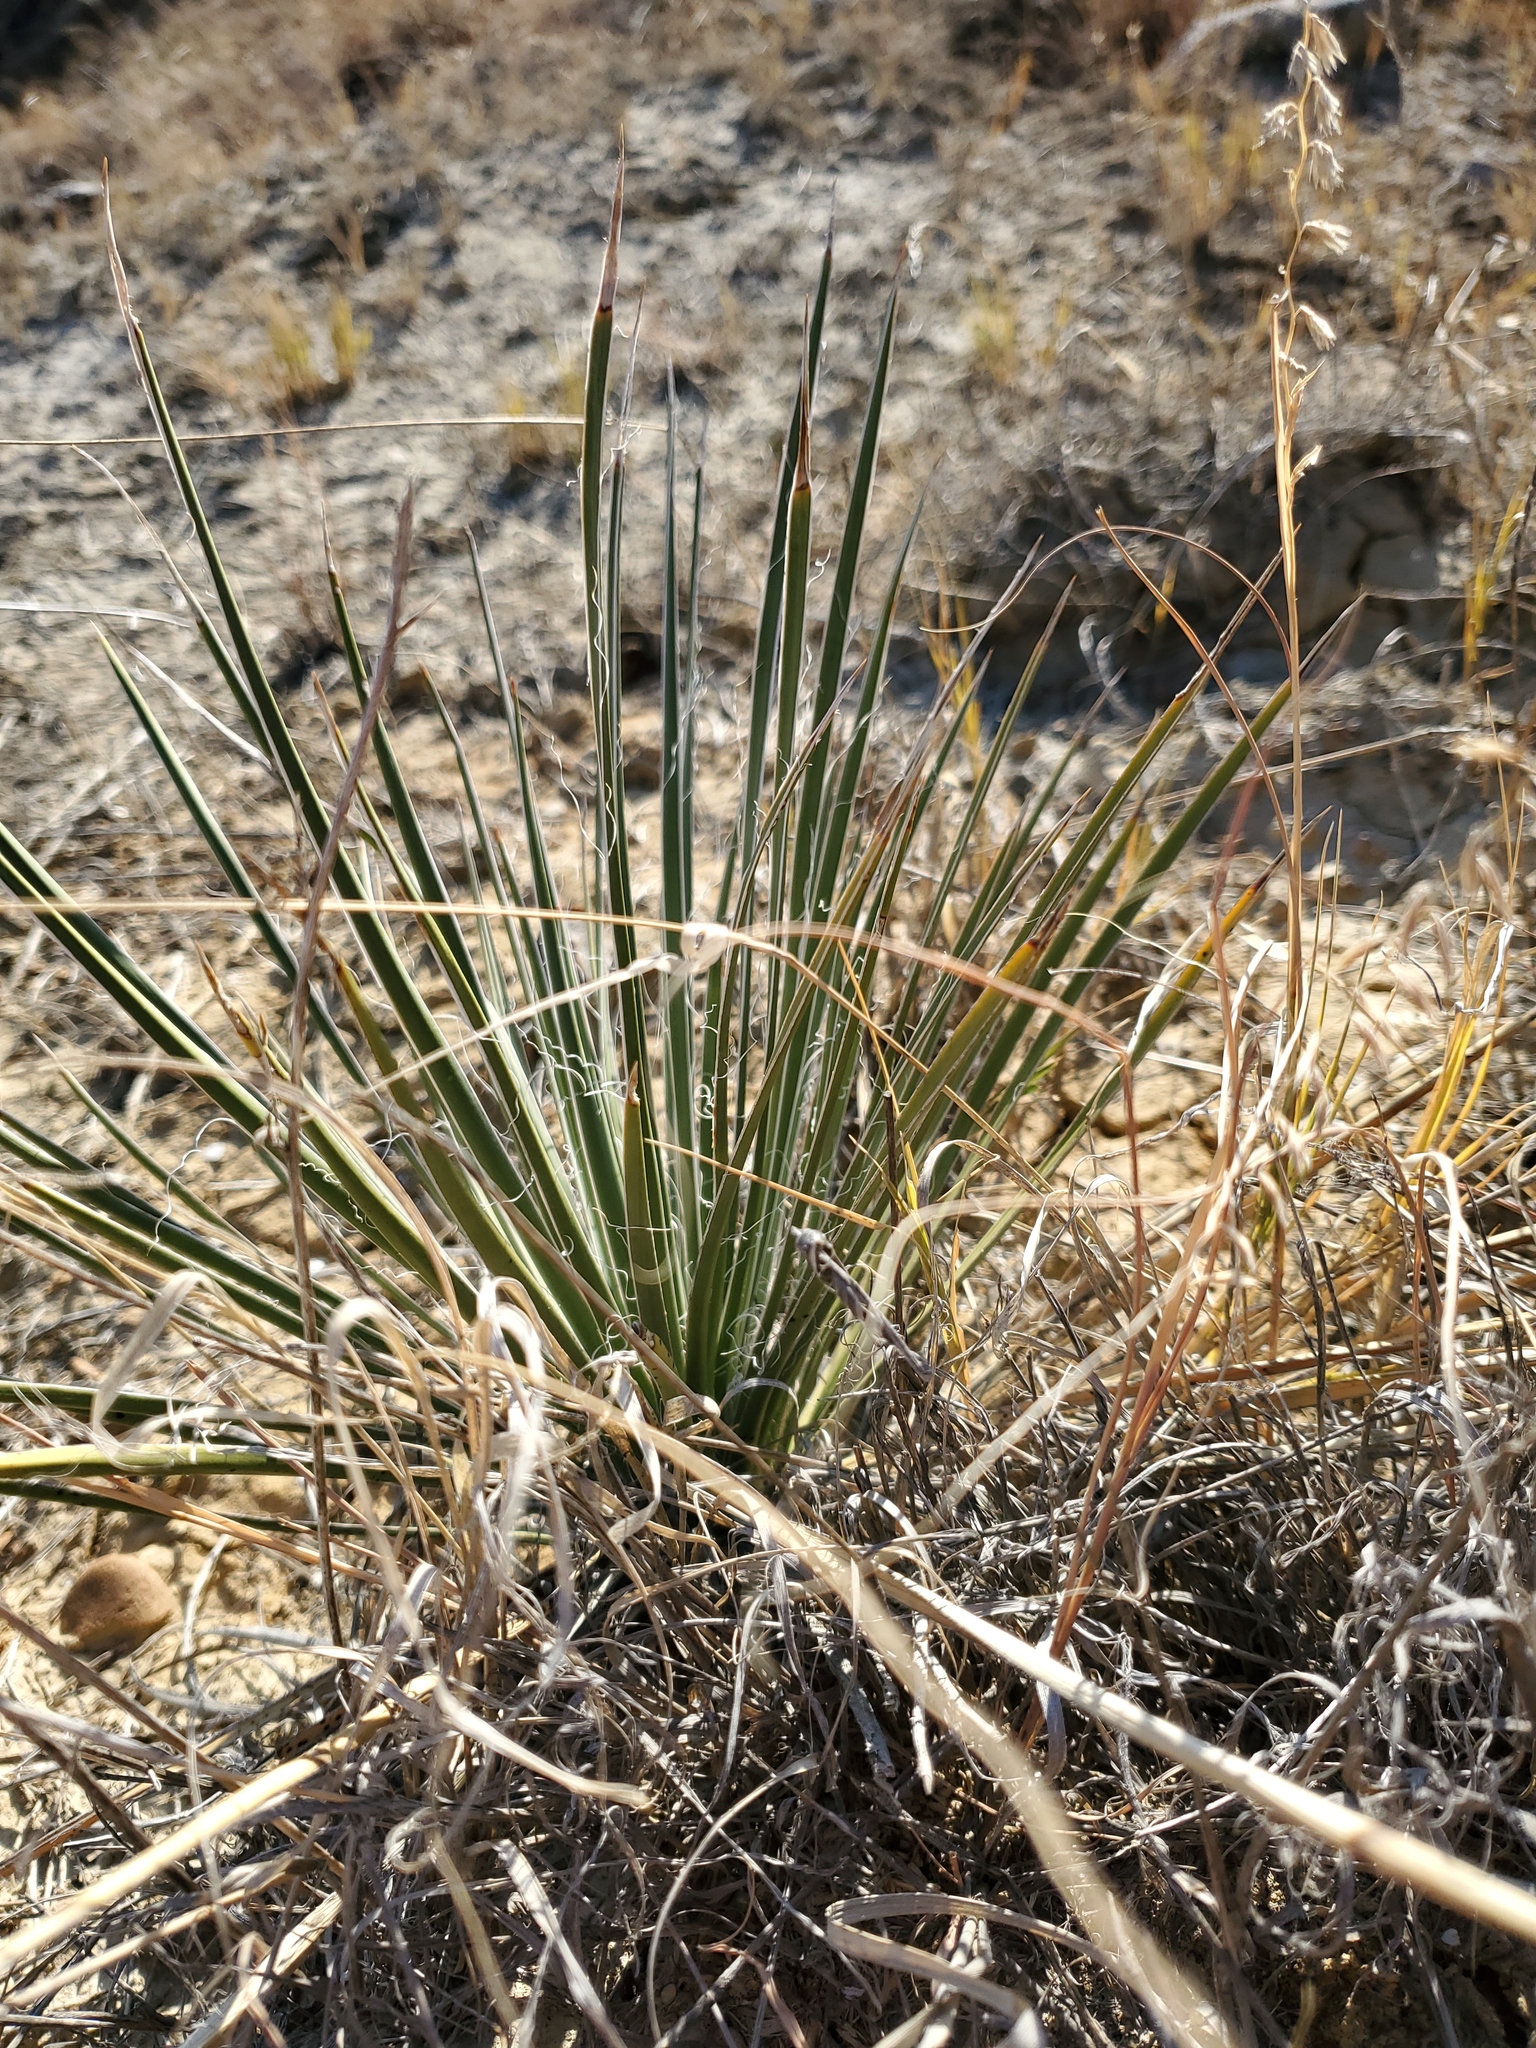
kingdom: Plantae
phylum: Tracheophyta
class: Liliopsida
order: Asparagales
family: Asparagaceae
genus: Yucca
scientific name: Yucca glauca
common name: Great plains yucca
